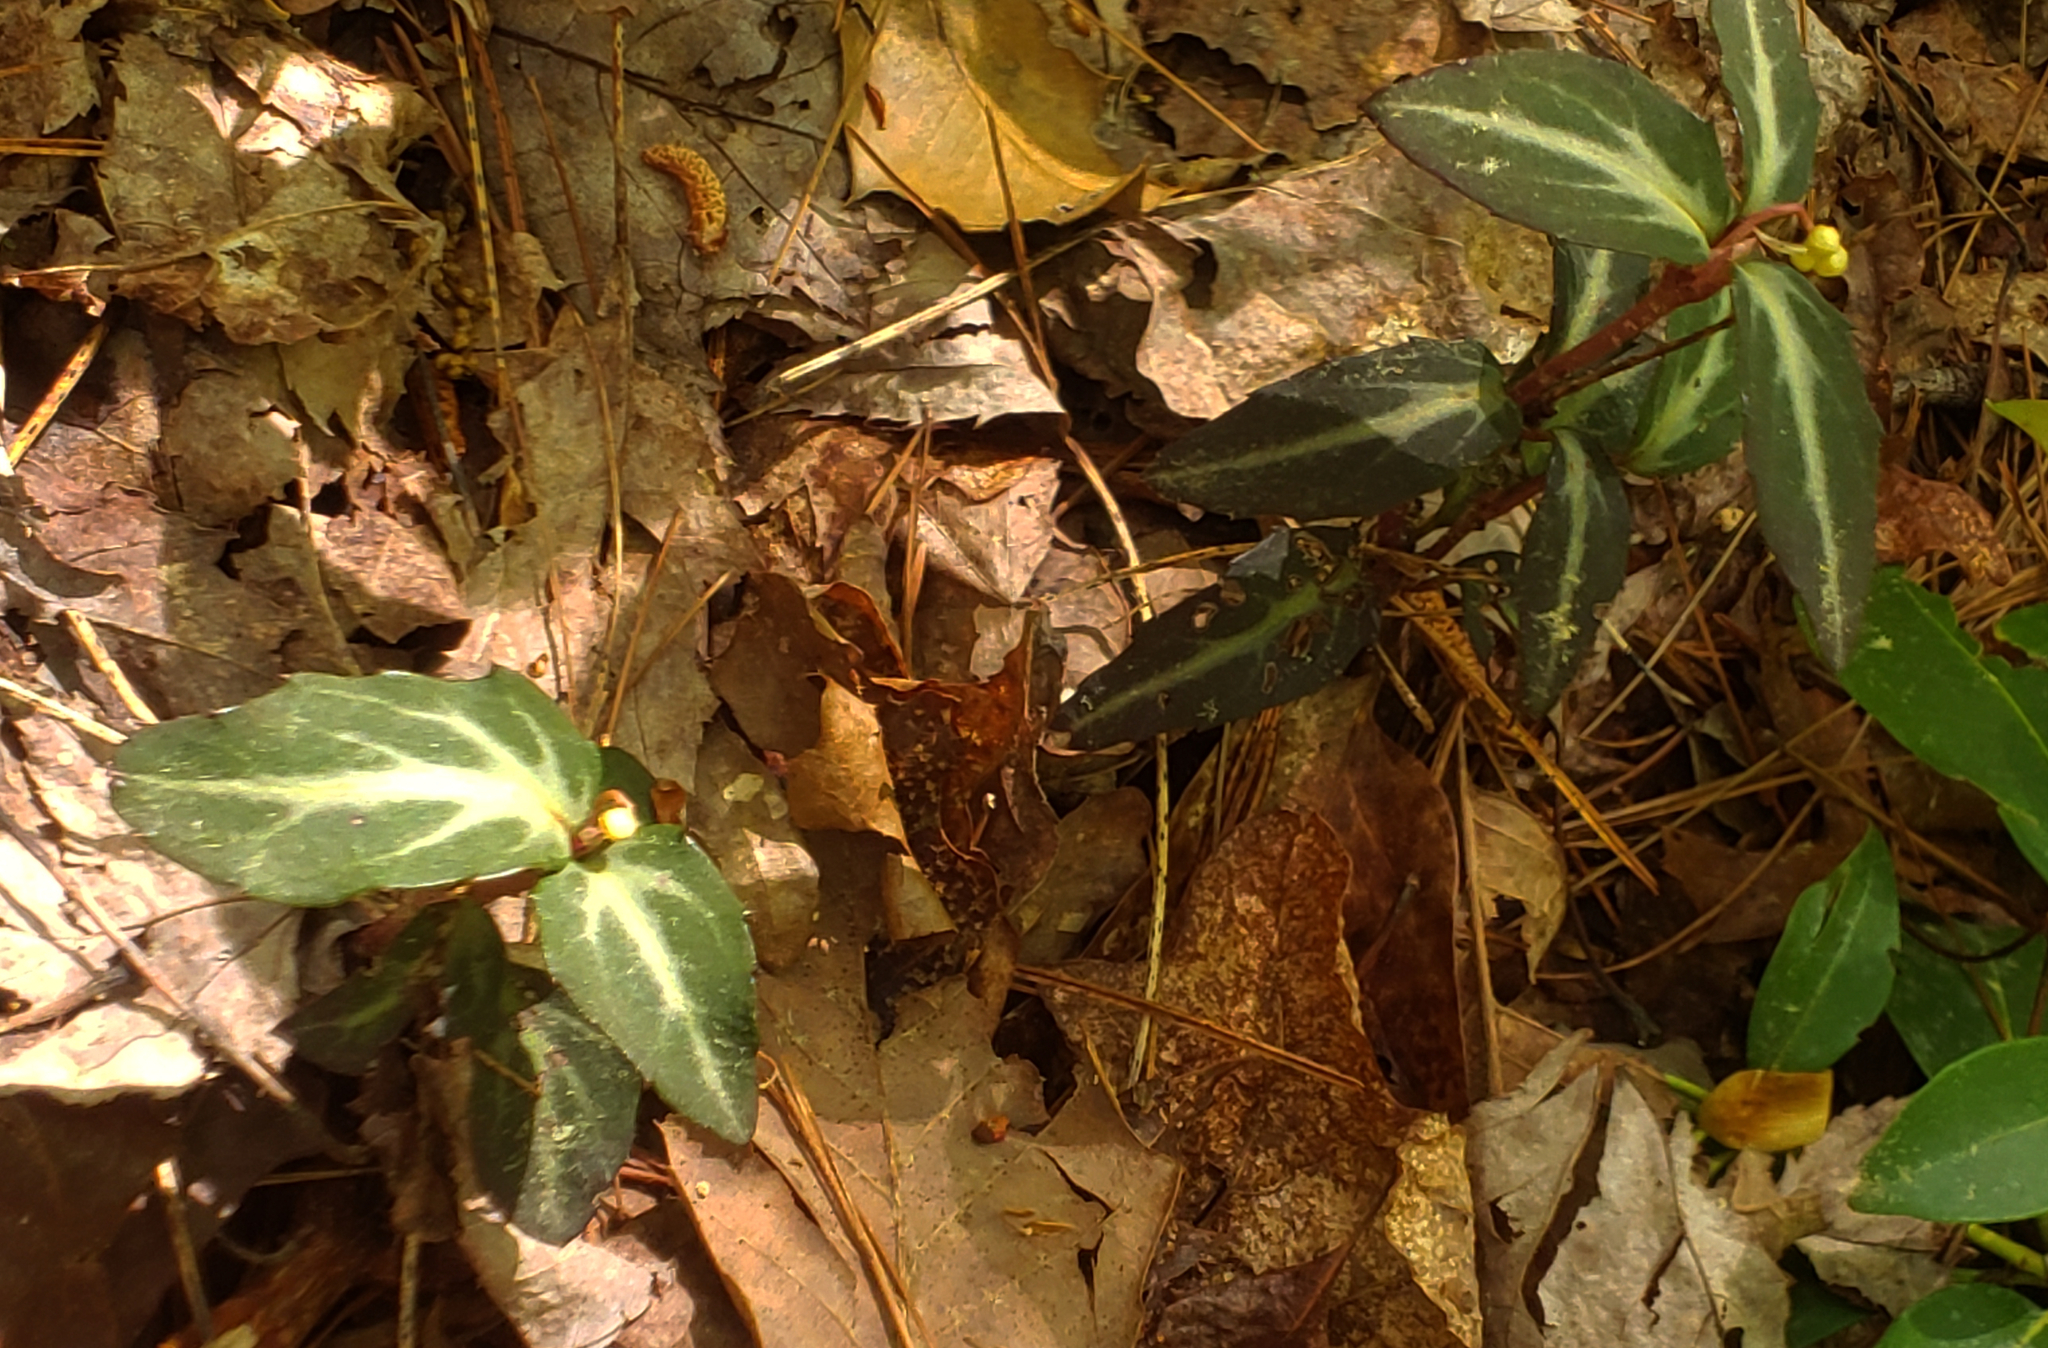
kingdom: Plantae
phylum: Tracheophyta
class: Magnoliopsida
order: Ericales
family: Ericaceae
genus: Chimaphila
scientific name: Chimaphila maculata
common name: Spotted pipsissewa
